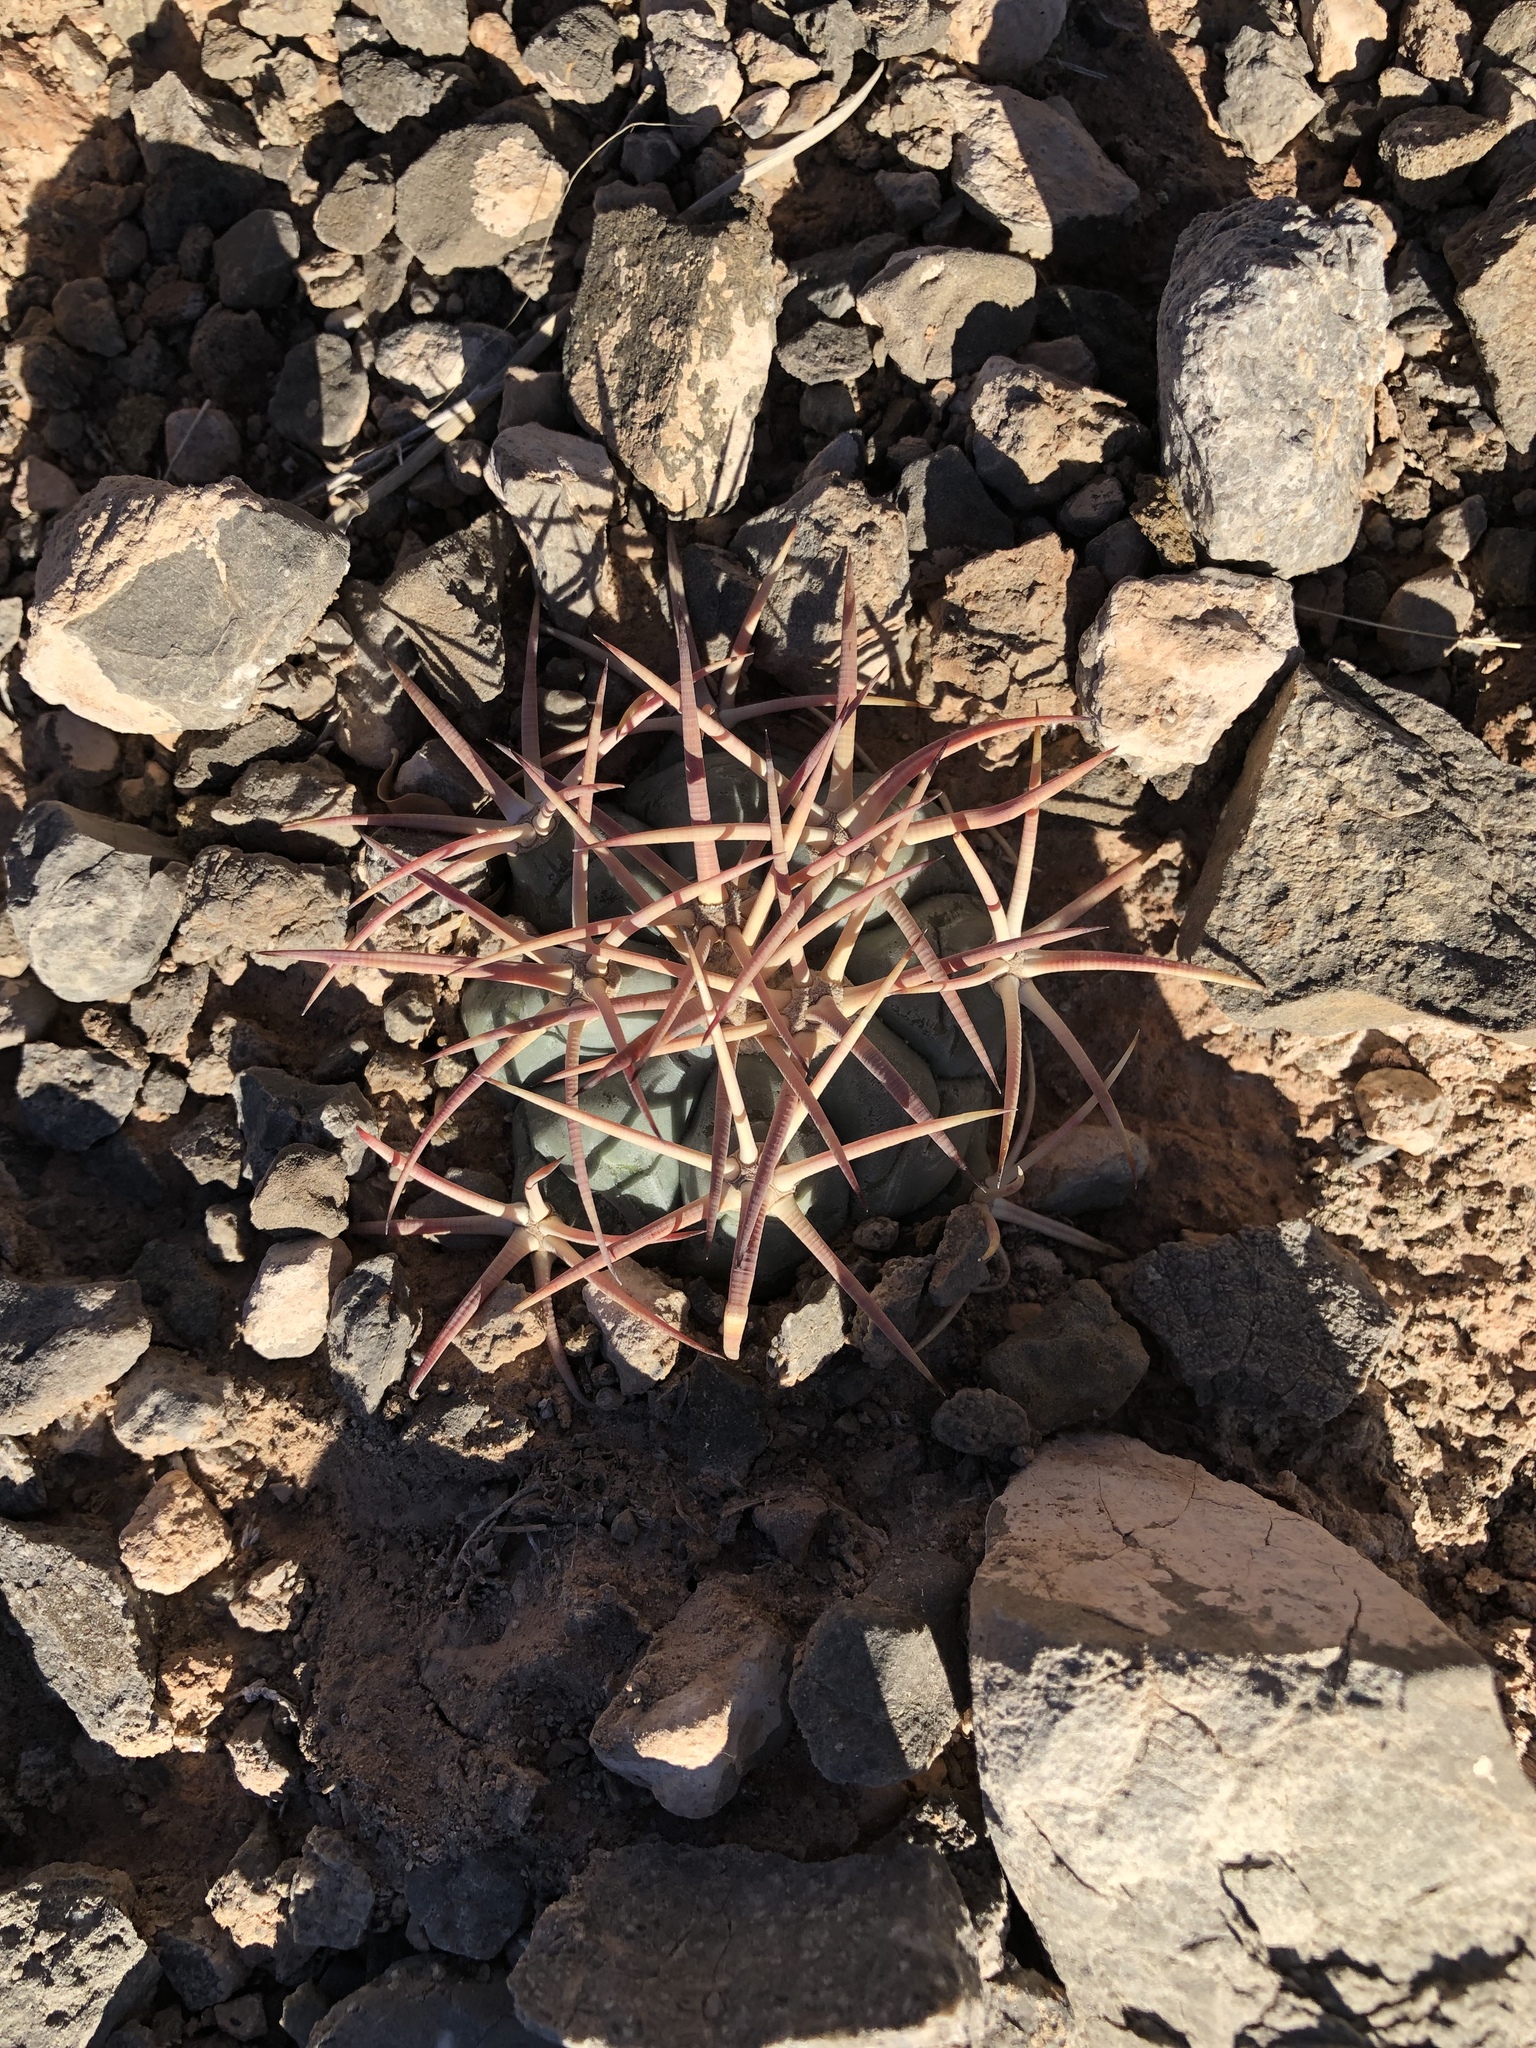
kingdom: Plantae
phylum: Tracheophyta
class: Magnoliopsida
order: Caryophyllales
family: Cactaceae
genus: Echinocactus
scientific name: Echinocactus horizonthalonius
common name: Devilshead
